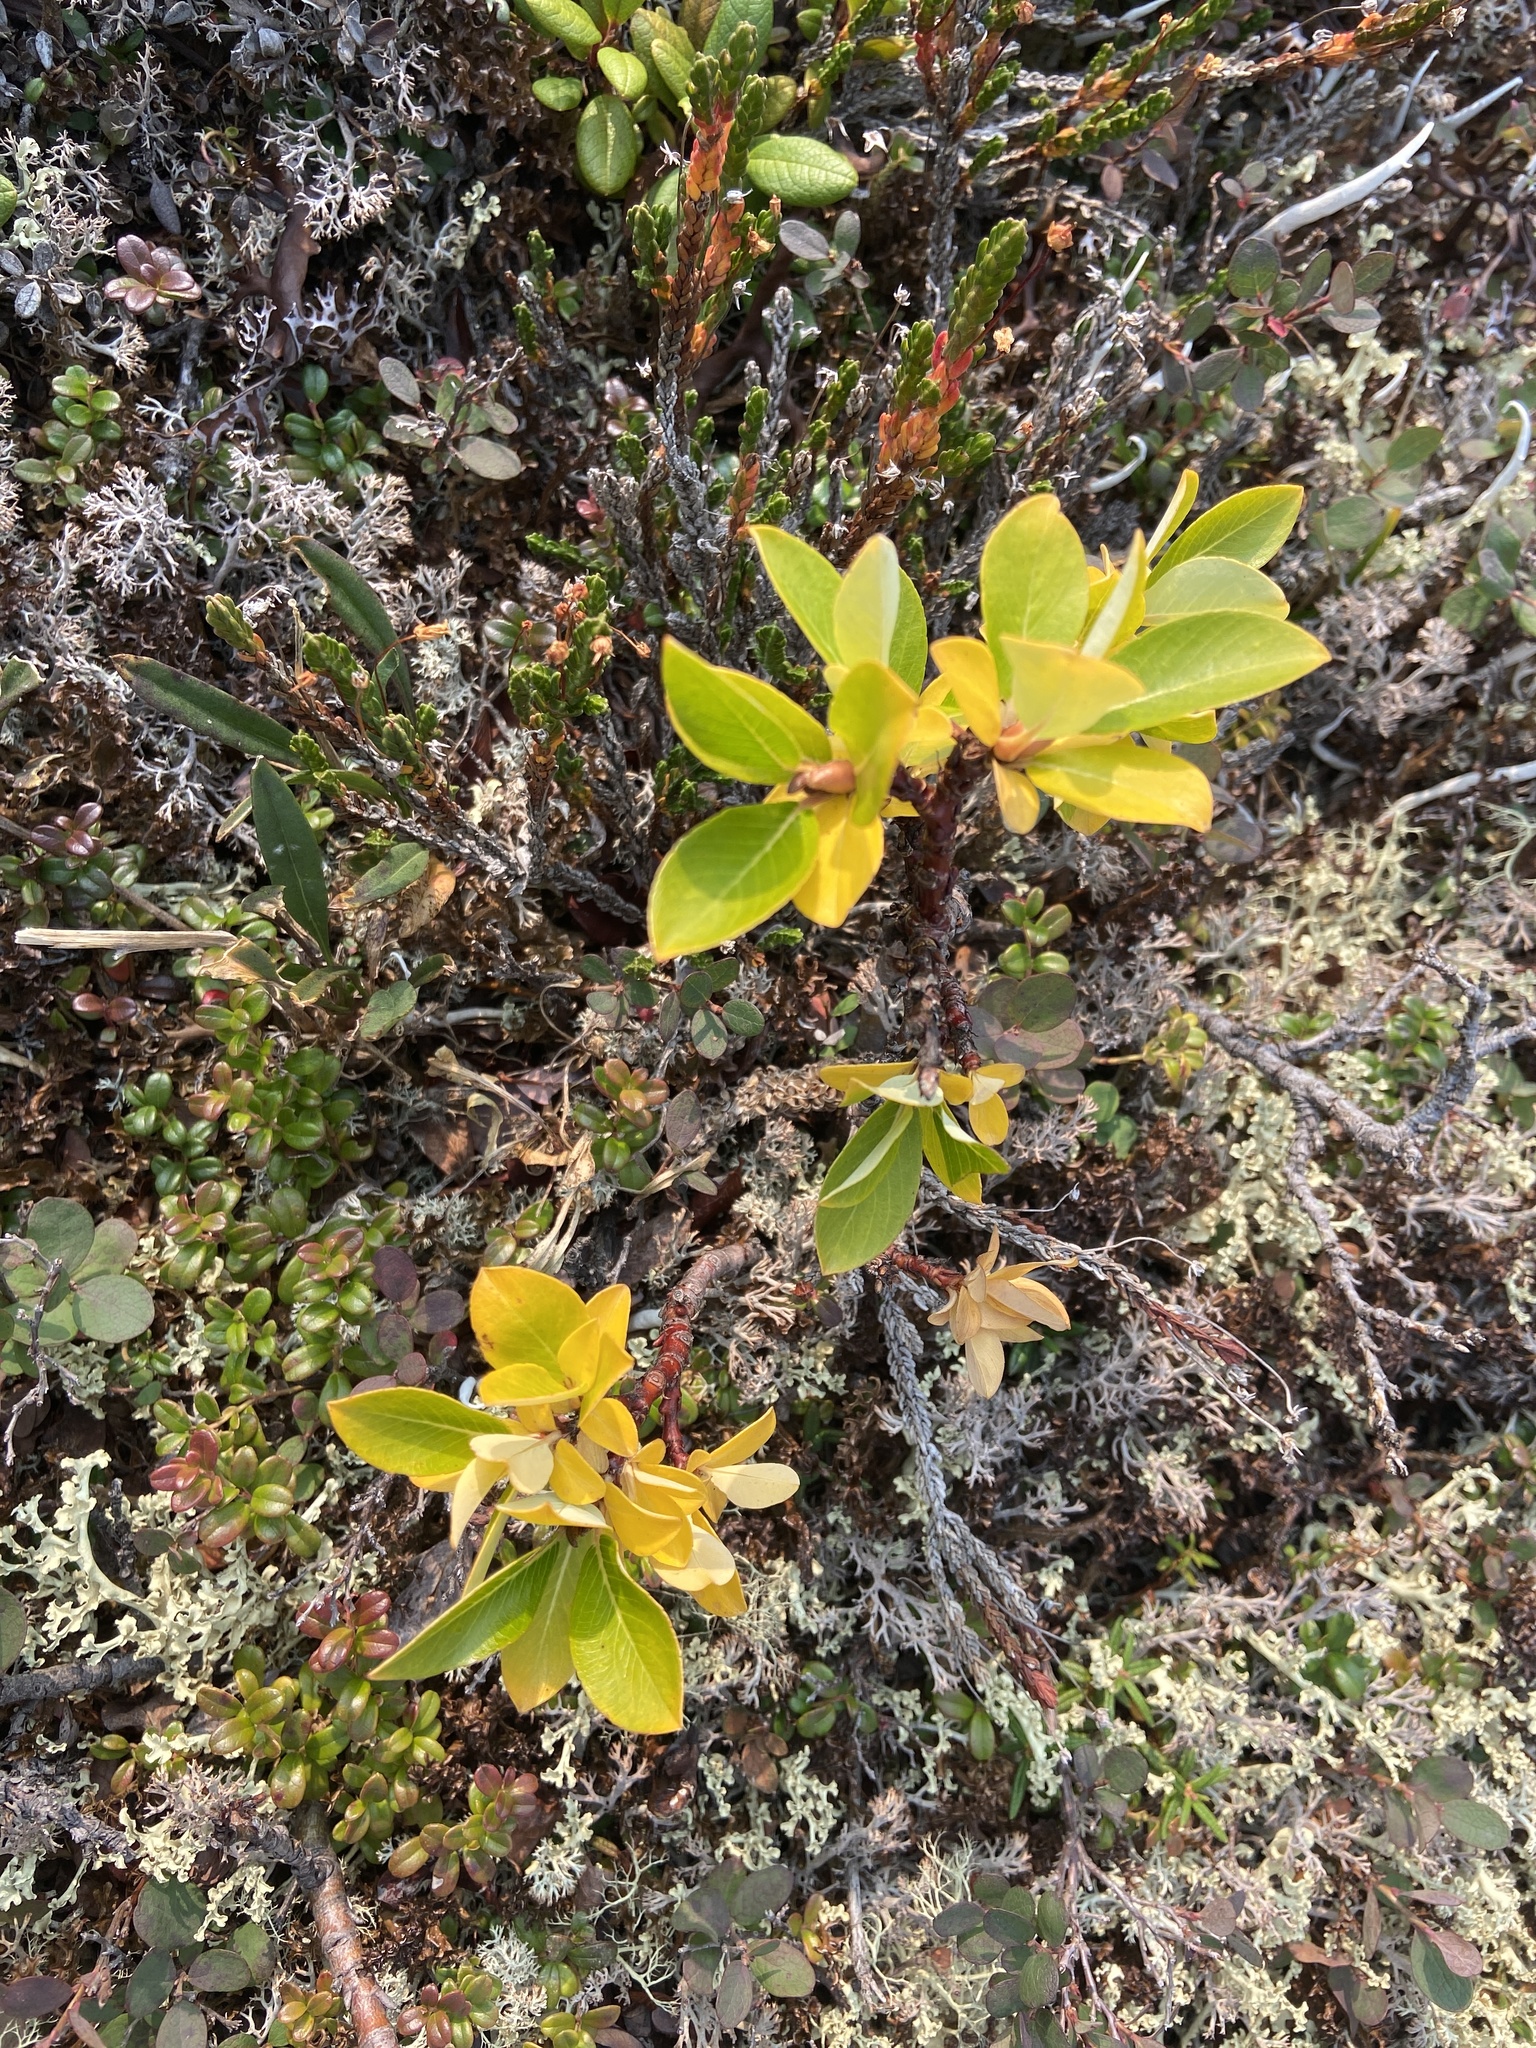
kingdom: Plantae
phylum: Tracheophyta
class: Magnoliopsida
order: Malpighiales
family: Salicaceae
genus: Salix
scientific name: Salix pulchra
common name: Diamond-leaved willow
